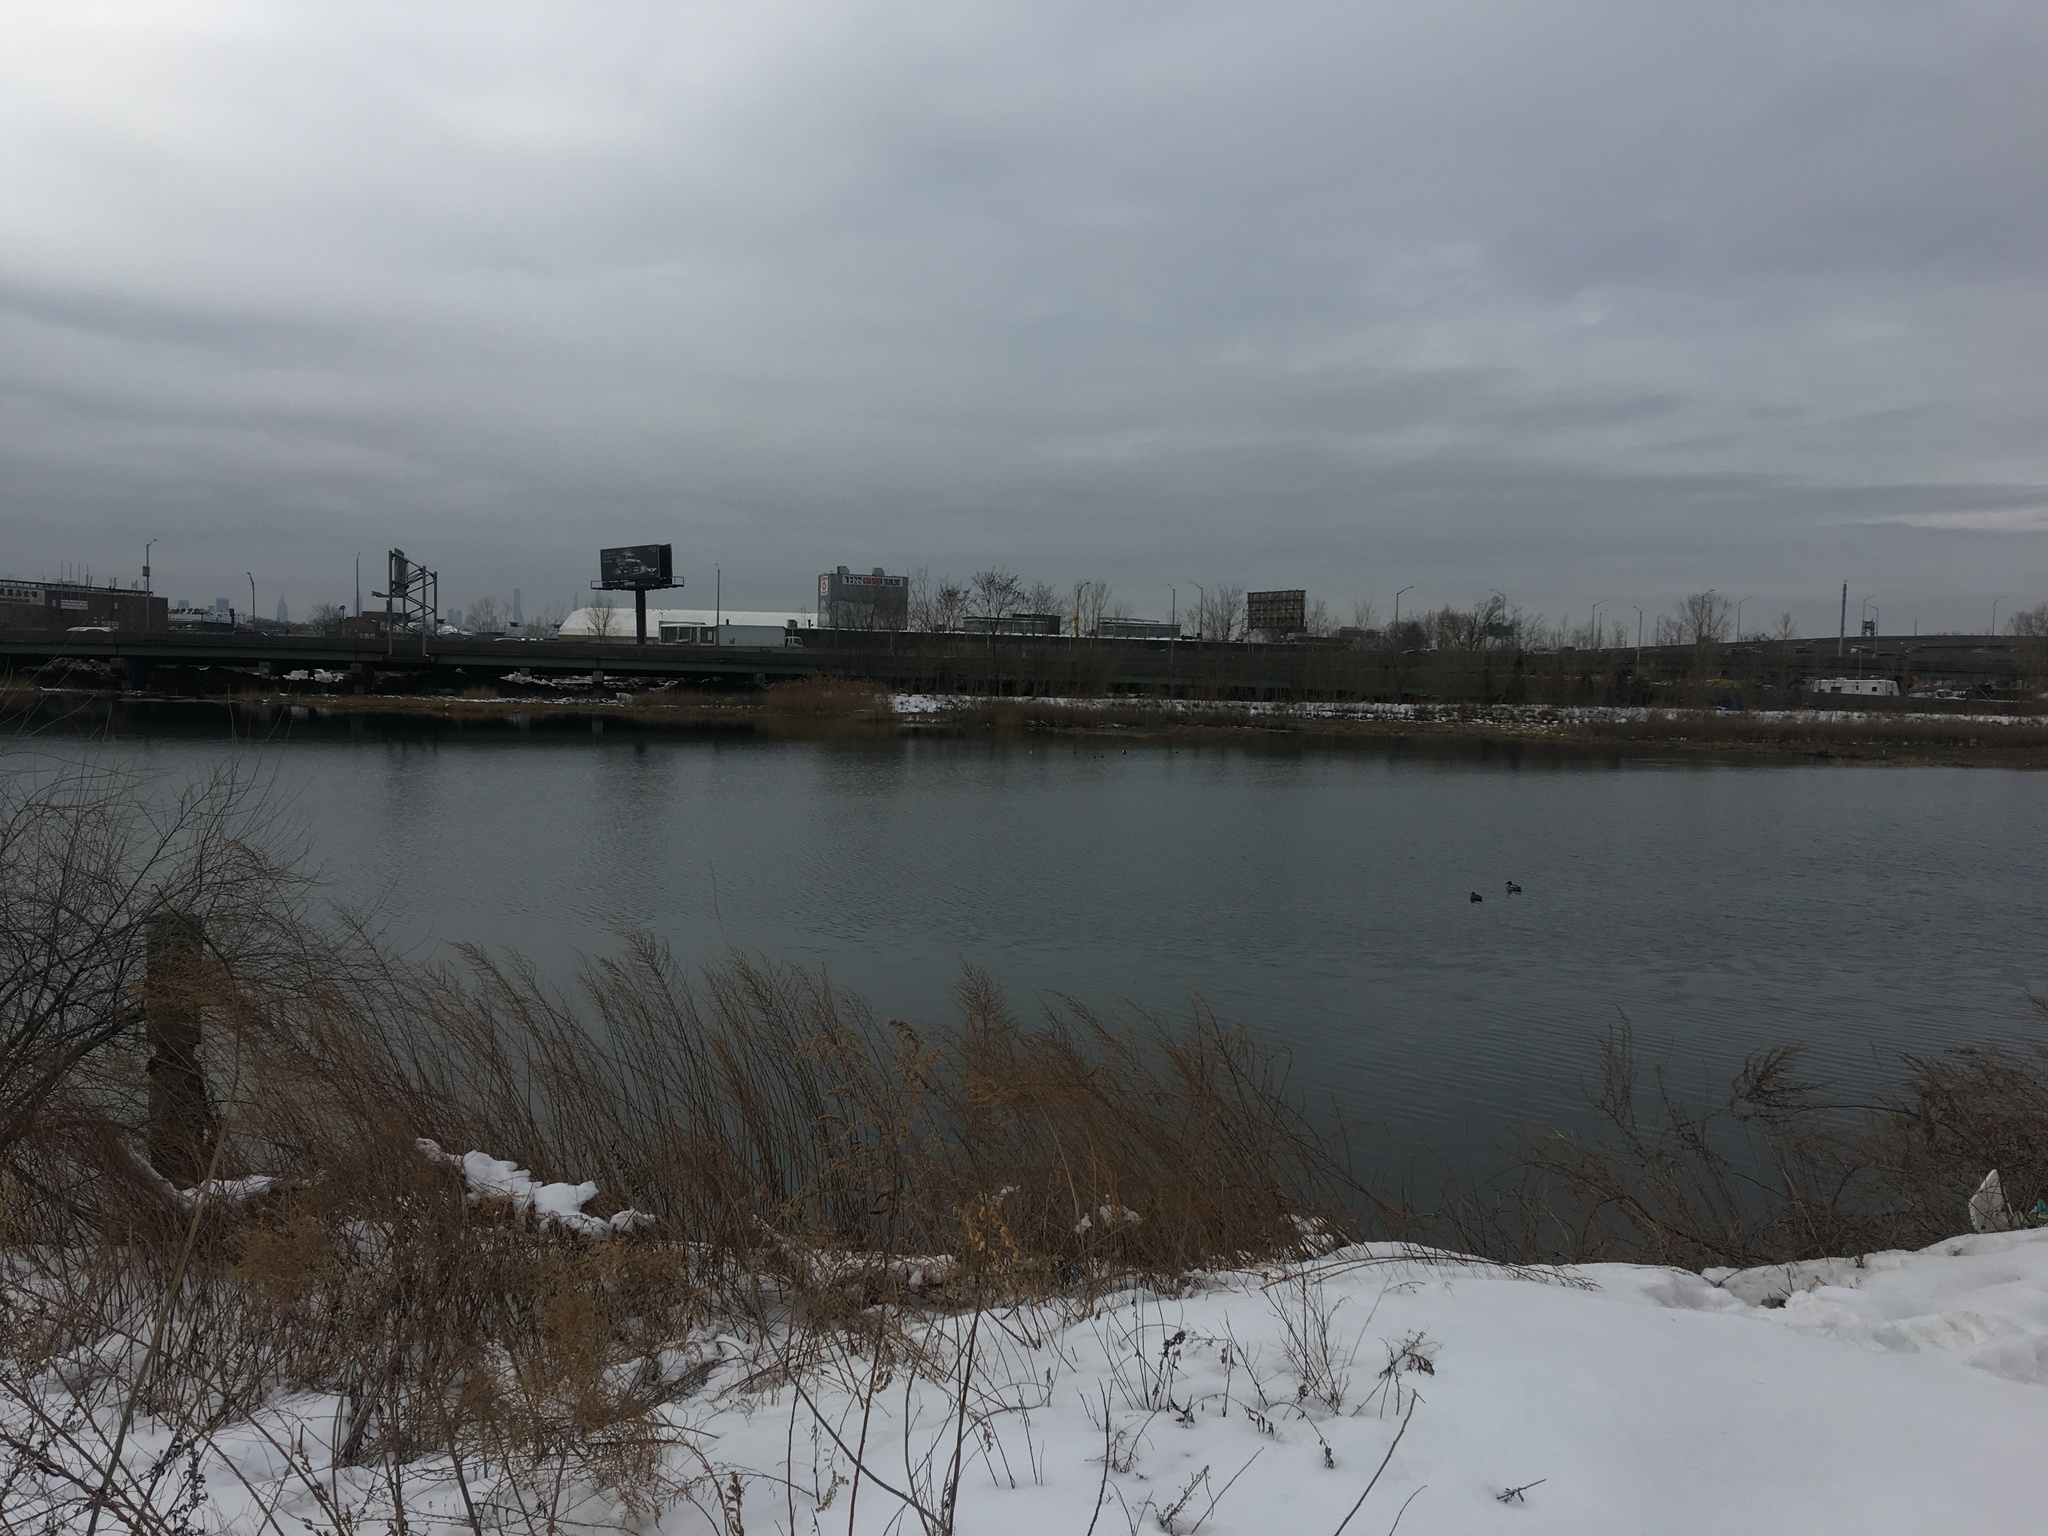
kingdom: Animalia
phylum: Chordata
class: Aves
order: Anseriformes
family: Anatidae
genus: Bucephala
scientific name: Bucephala albeola
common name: Bufflehead
